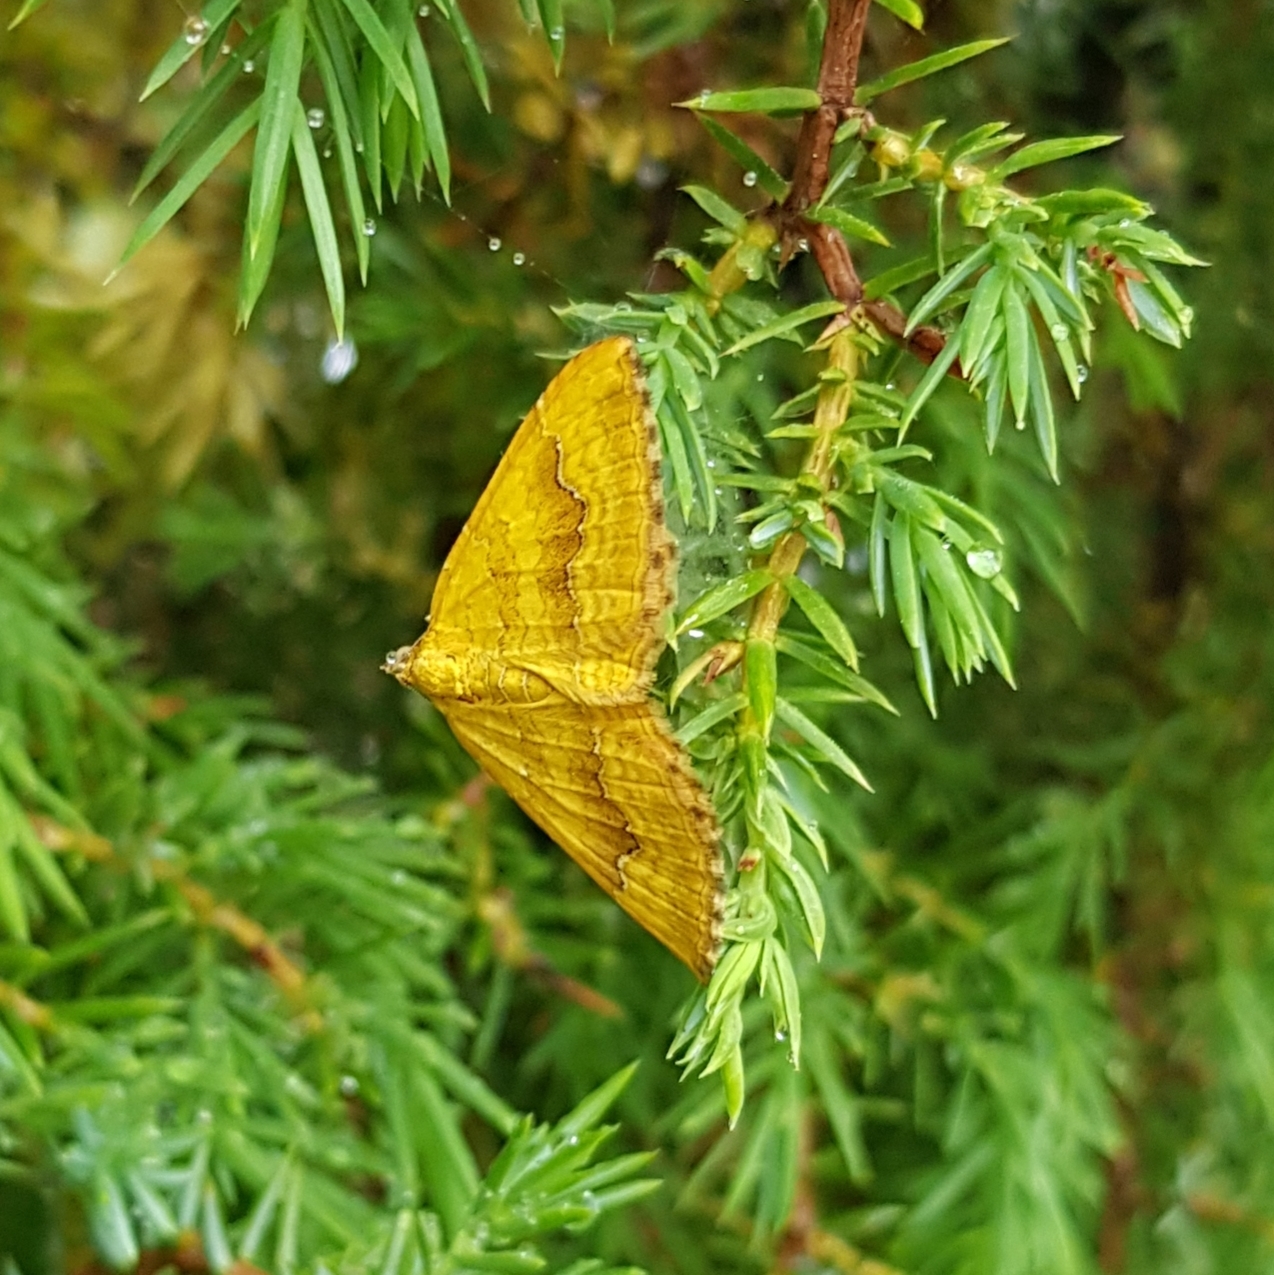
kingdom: Animalia
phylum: Arthropoda
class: Insecta
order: Lepidoptera
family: Geometridae
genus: Camptogramma
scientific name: Camptogramma bilineata
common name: Yellow shell
